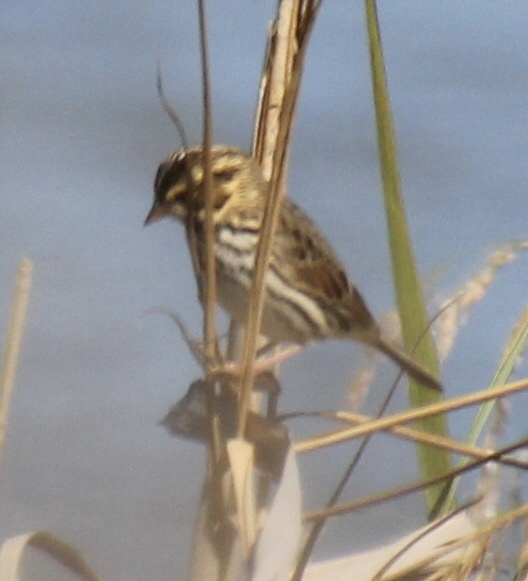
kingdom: Animalia
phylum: Chordata
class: Aves
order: Passeriformes
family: Passerellidae
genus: Passerculus
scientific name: Passerculus sandwichensis
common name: Savannah sparrow
